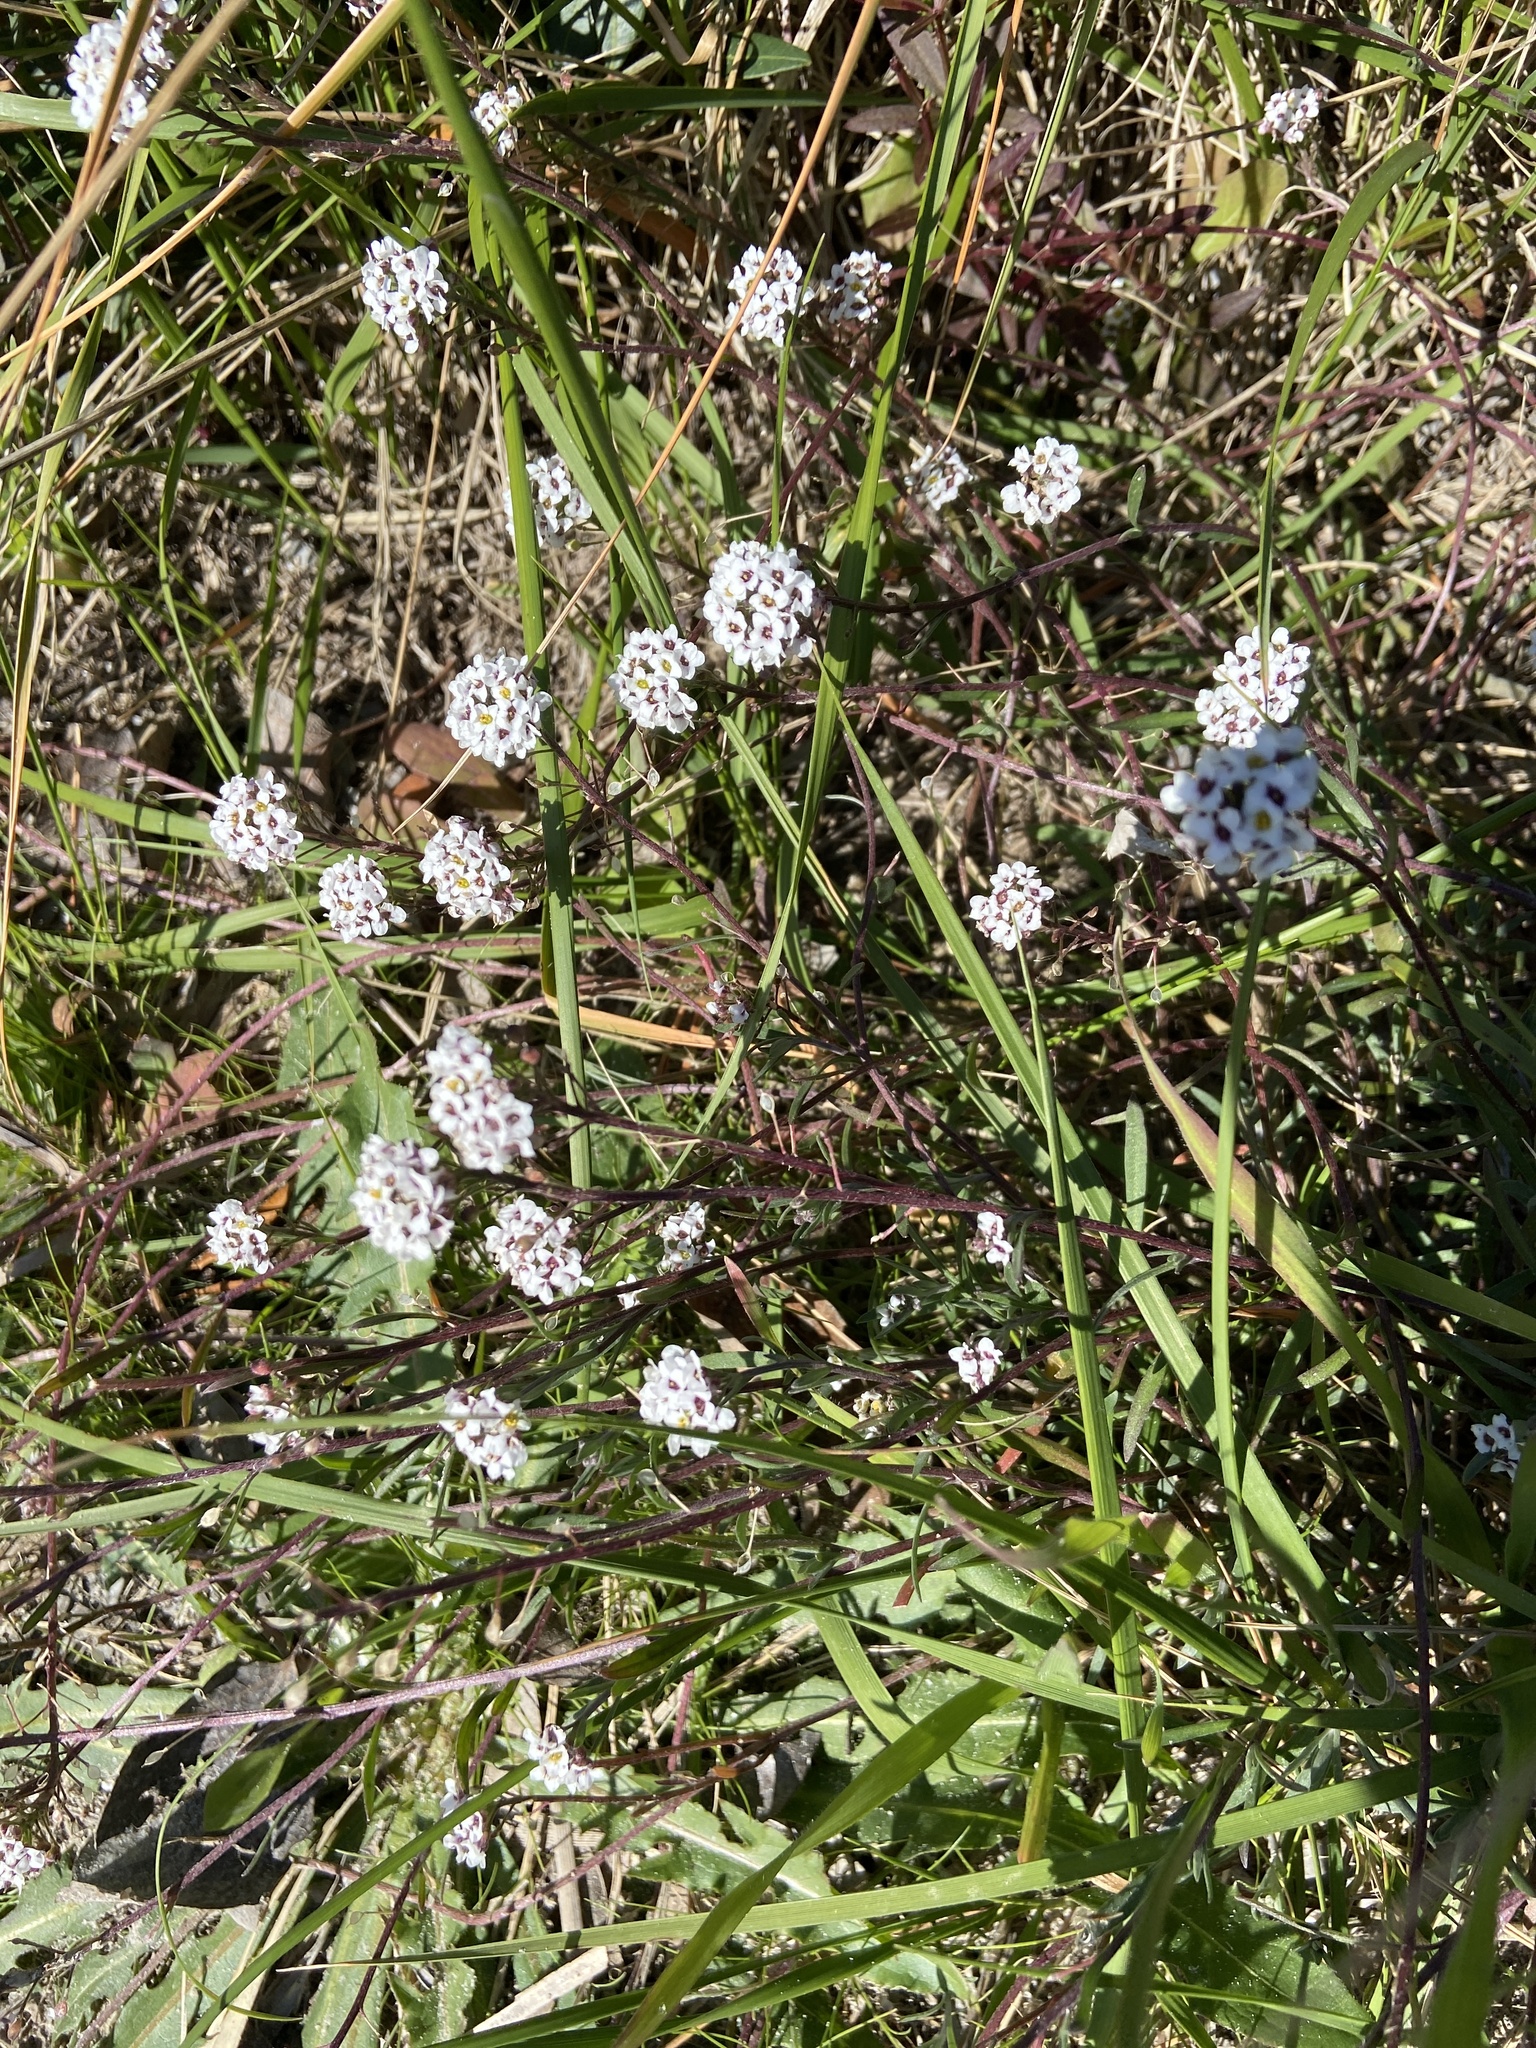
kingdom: Plantae
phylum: Tracheophyta
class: Magnoliopsida
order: Brassicales
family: Brassicaceae
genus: Lobularia
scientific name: Lobularia maritima
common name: Sweet alison
